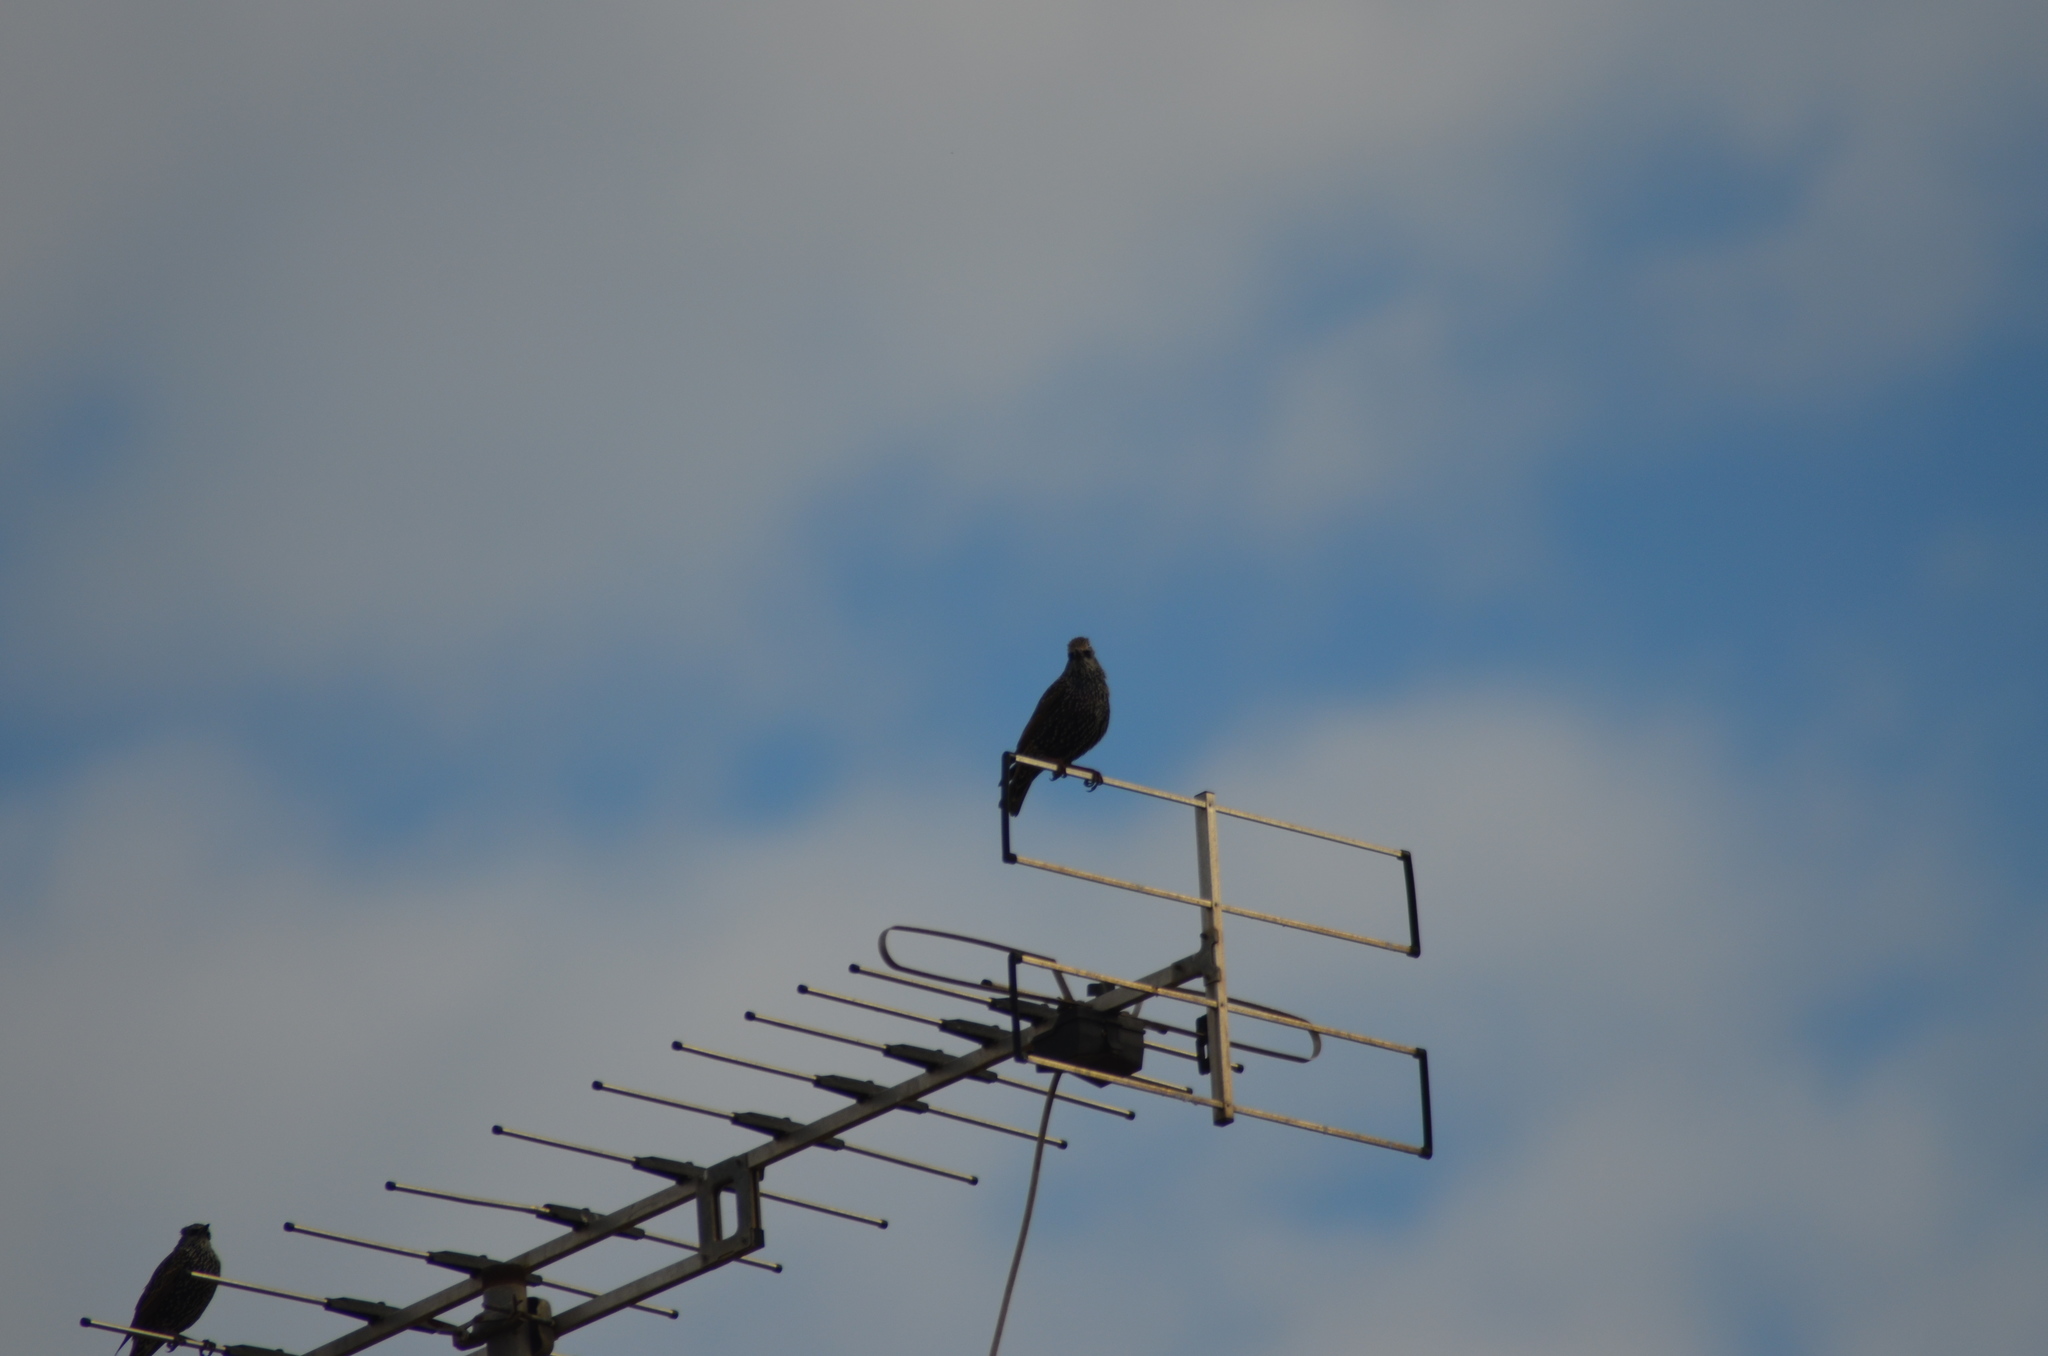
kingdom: Animalia
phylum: Chordata
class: Aves
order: Passeriformes
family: Sturnidae
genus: Sturnus
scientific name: Sturnus vulgaris
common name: Common starling
